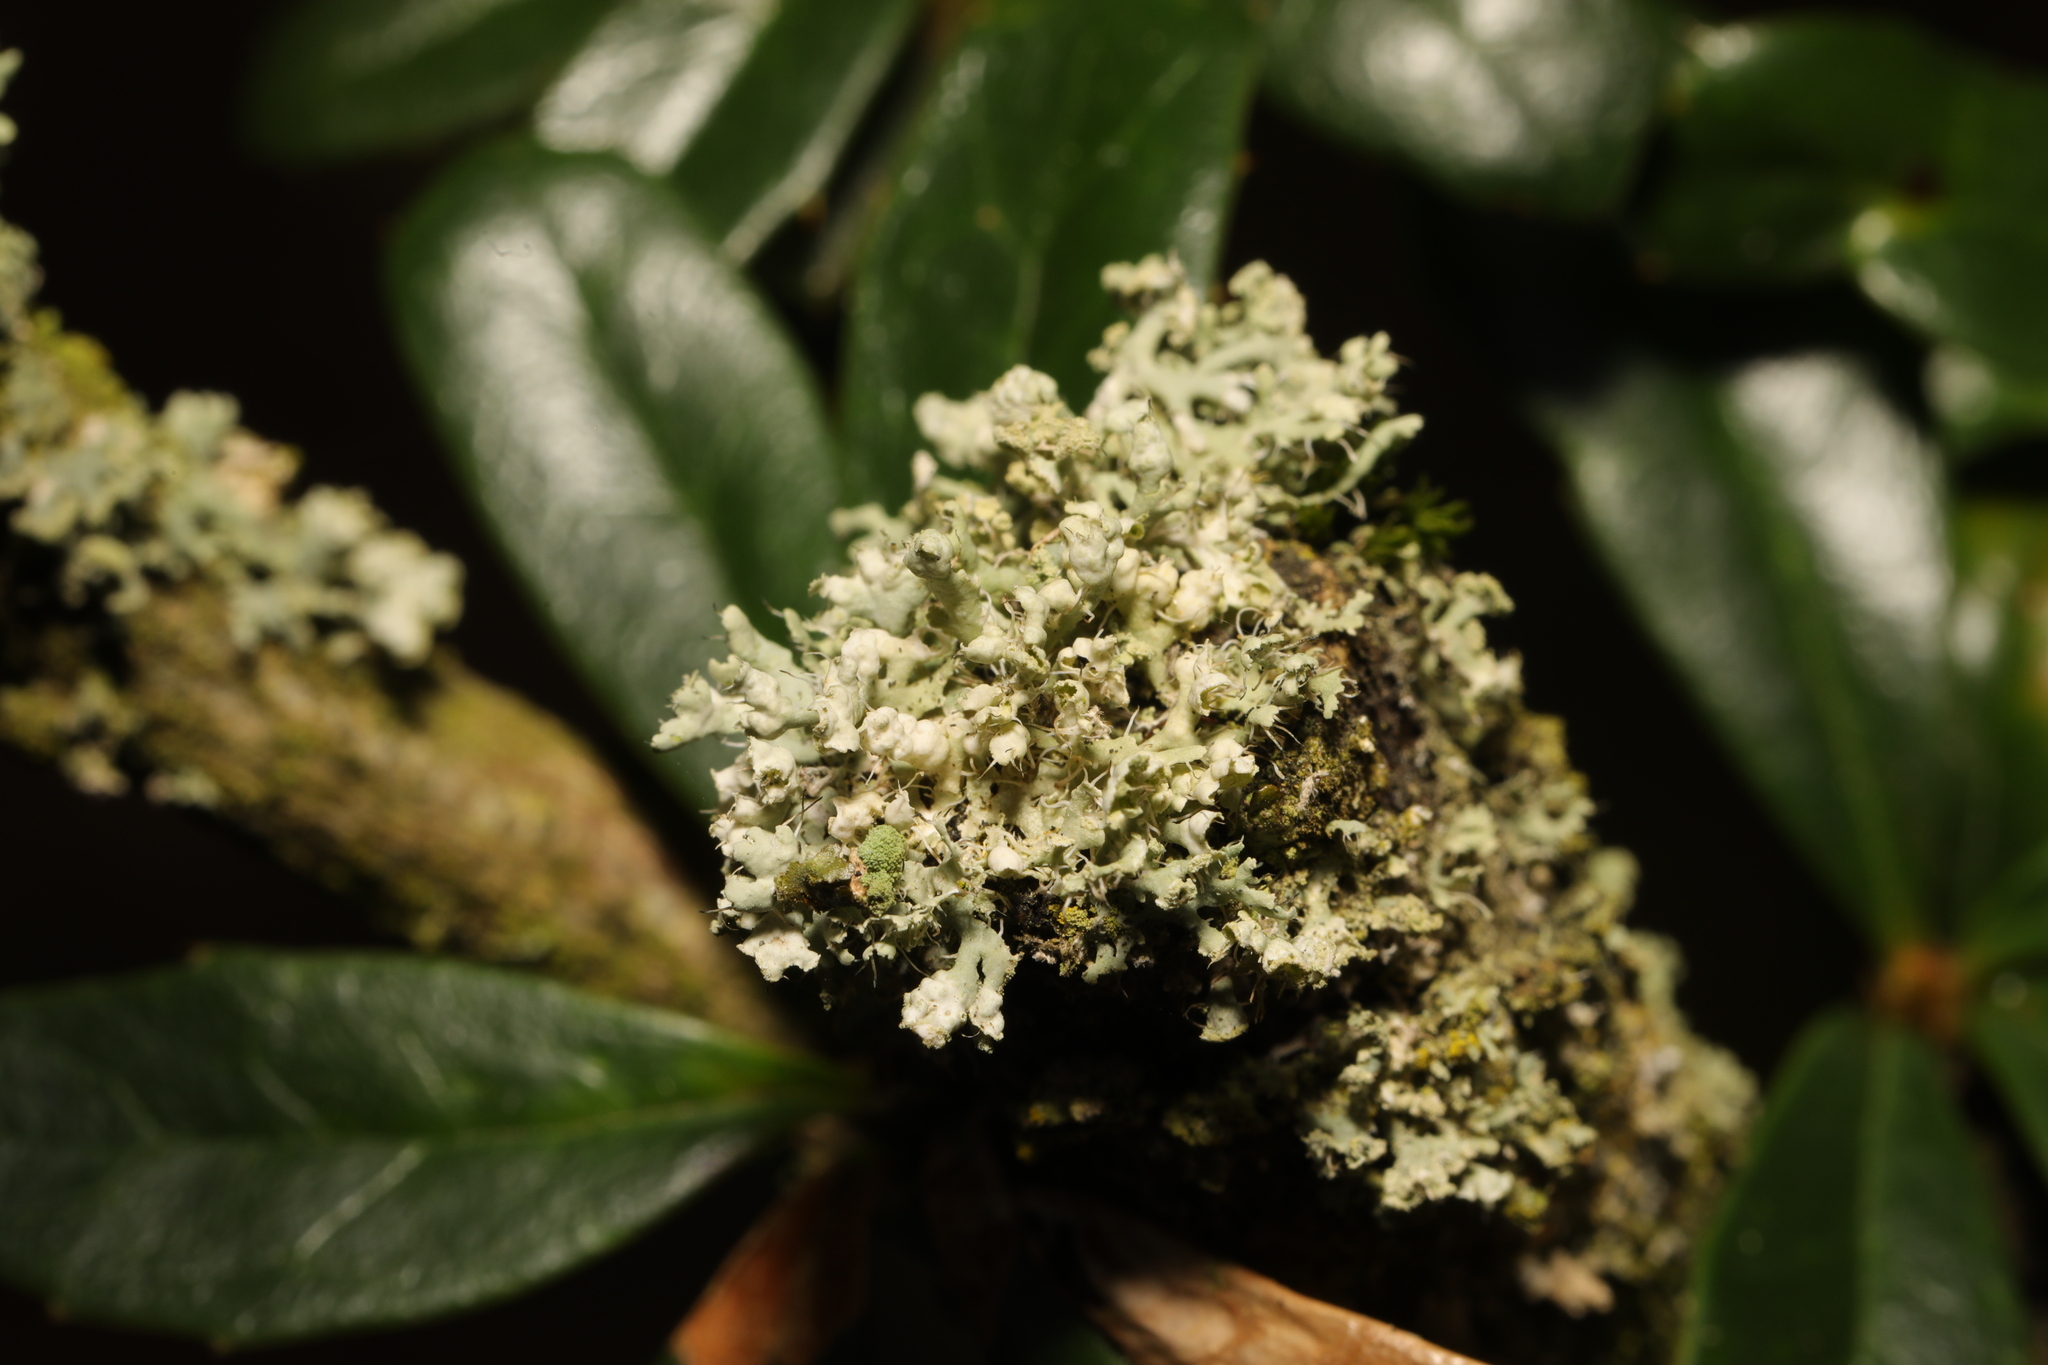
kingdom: Fungi
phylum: Ascomycota
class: Lecanoromycetes
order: Caliciales
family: Physciaceae
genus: Physcia
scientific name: Physcia adscendens
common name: Hooded rosette lichen
